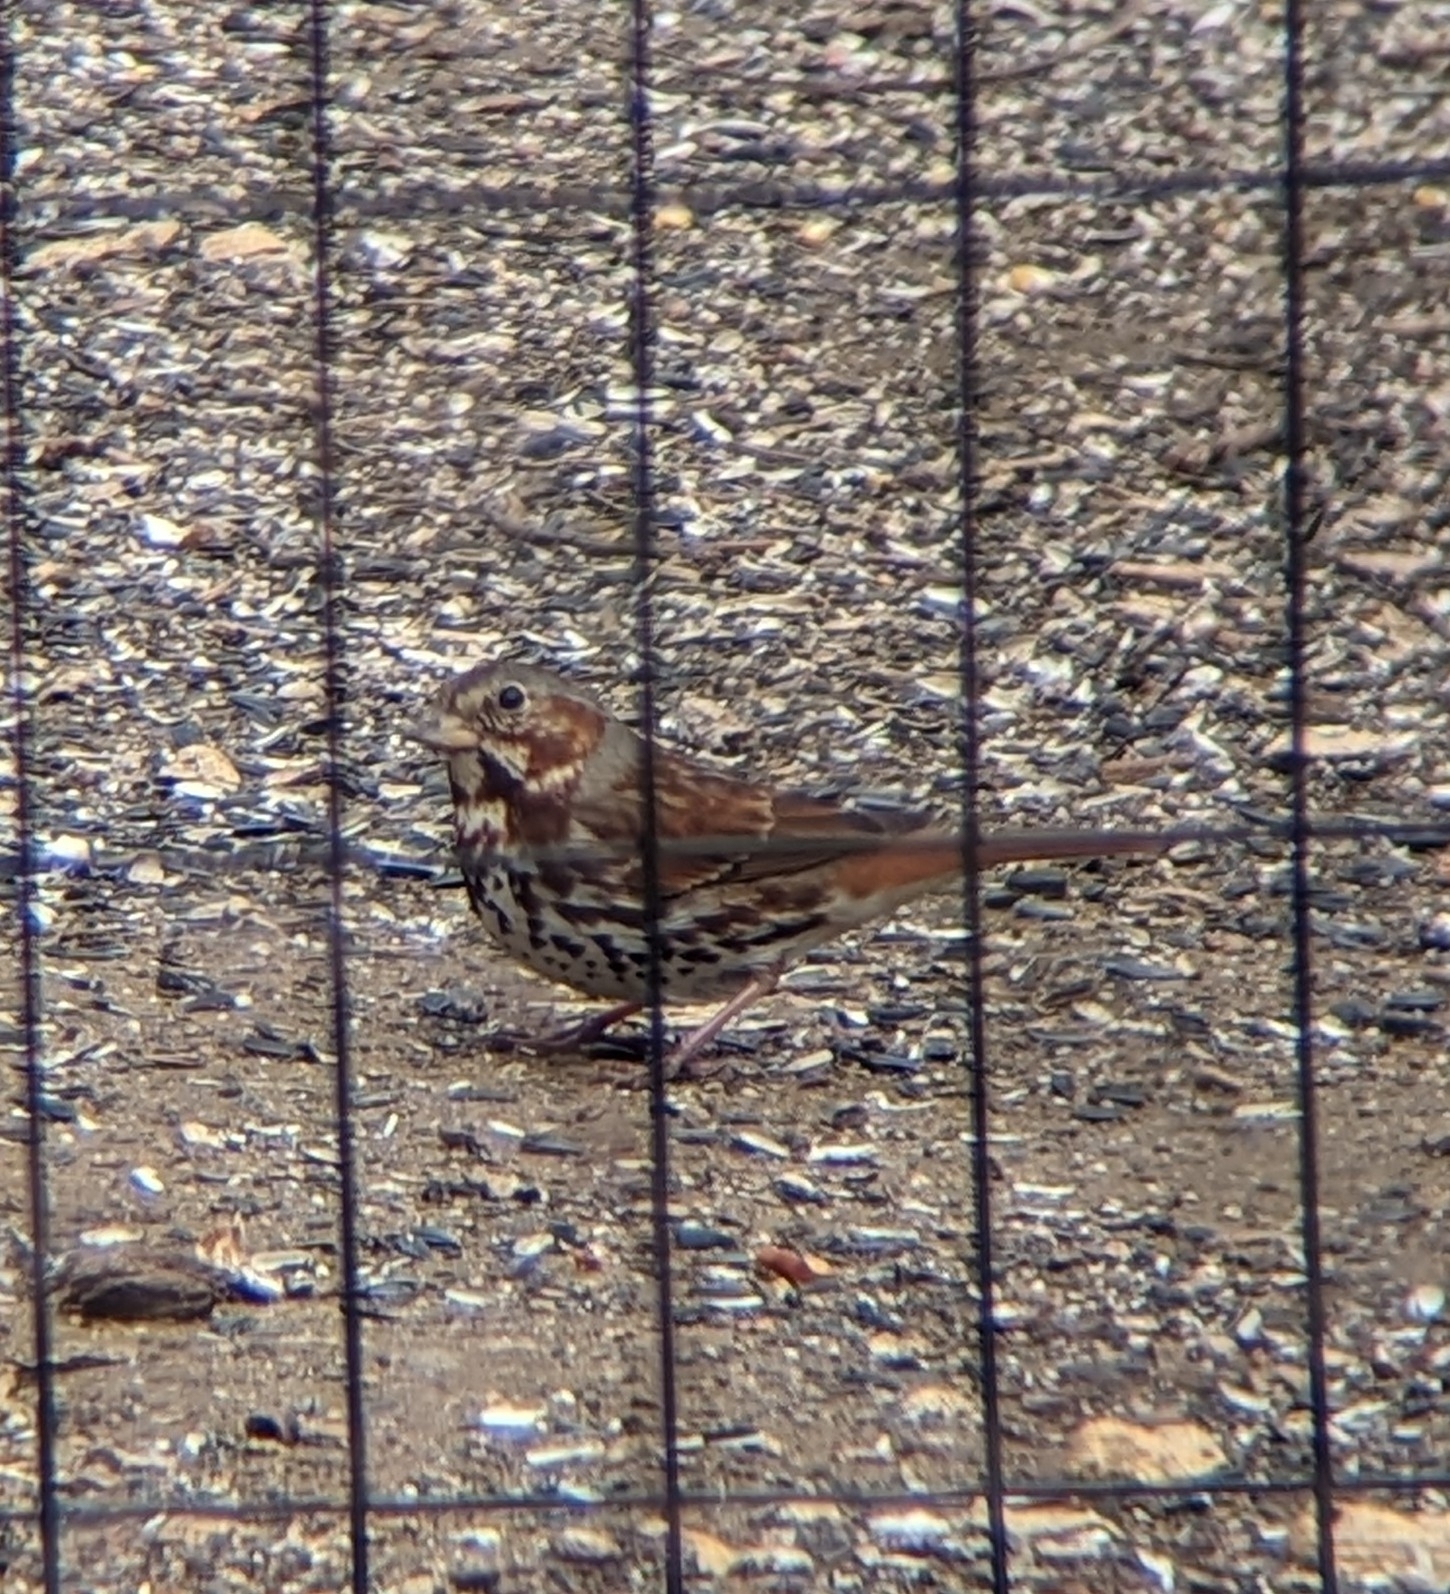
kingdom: Animalia
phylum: Chordata
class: Aves
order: Passeriformes
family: Passerellidae
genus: Passerella
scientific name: Passerella iliaca
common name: Fox sparrow
